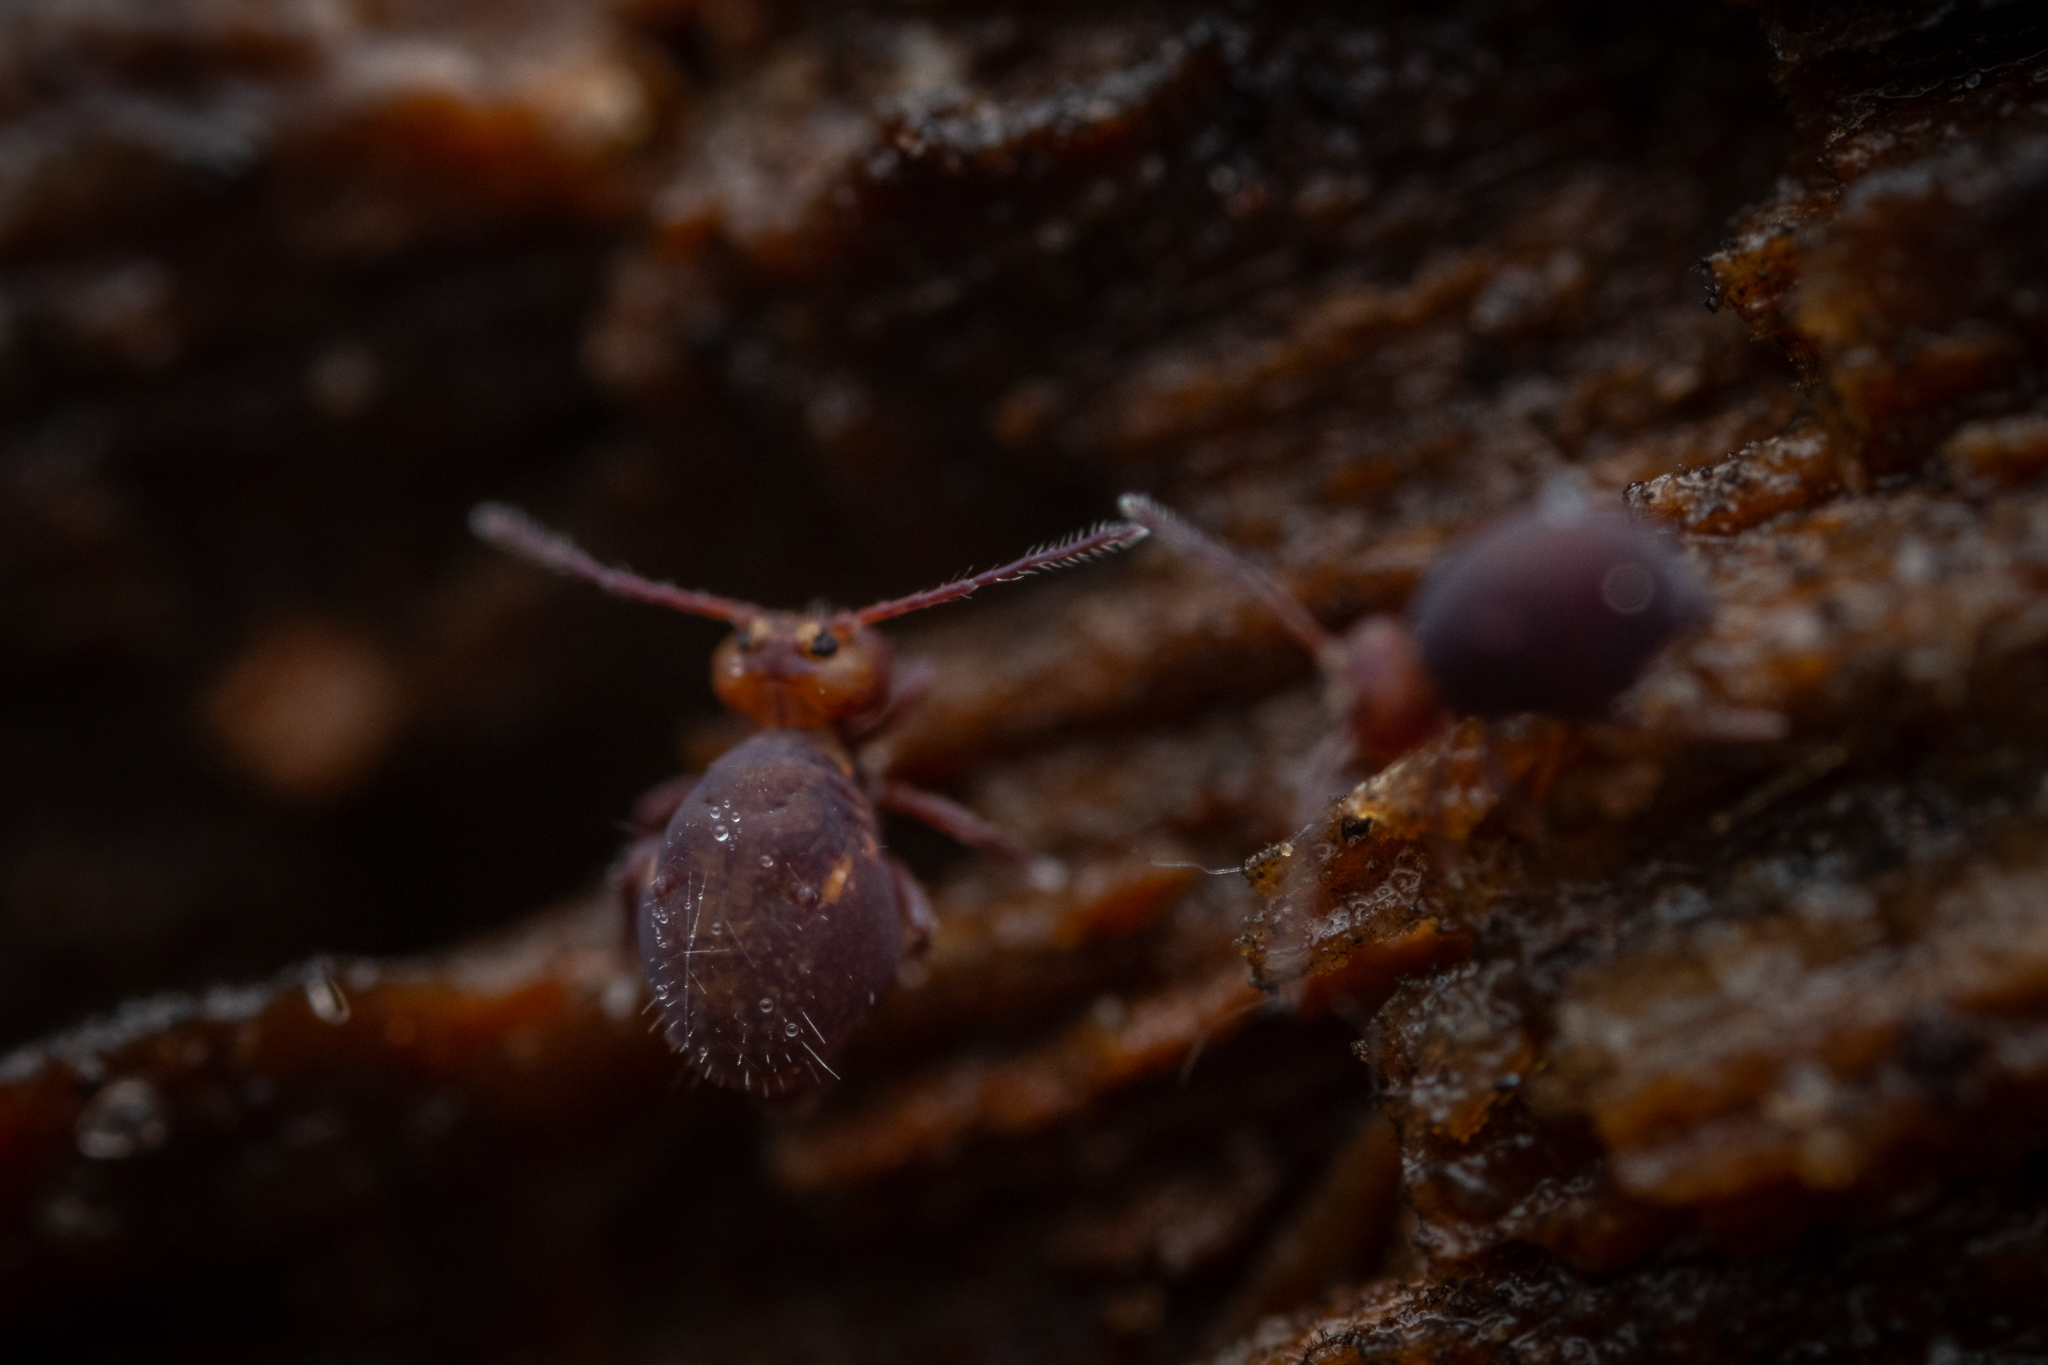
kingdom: Animalia
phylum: Arthropoda
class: Collembola
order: Symphypleona
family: Dicyrtomidae
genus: Dicyrtoma
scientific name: Dicyrtoma fusca
